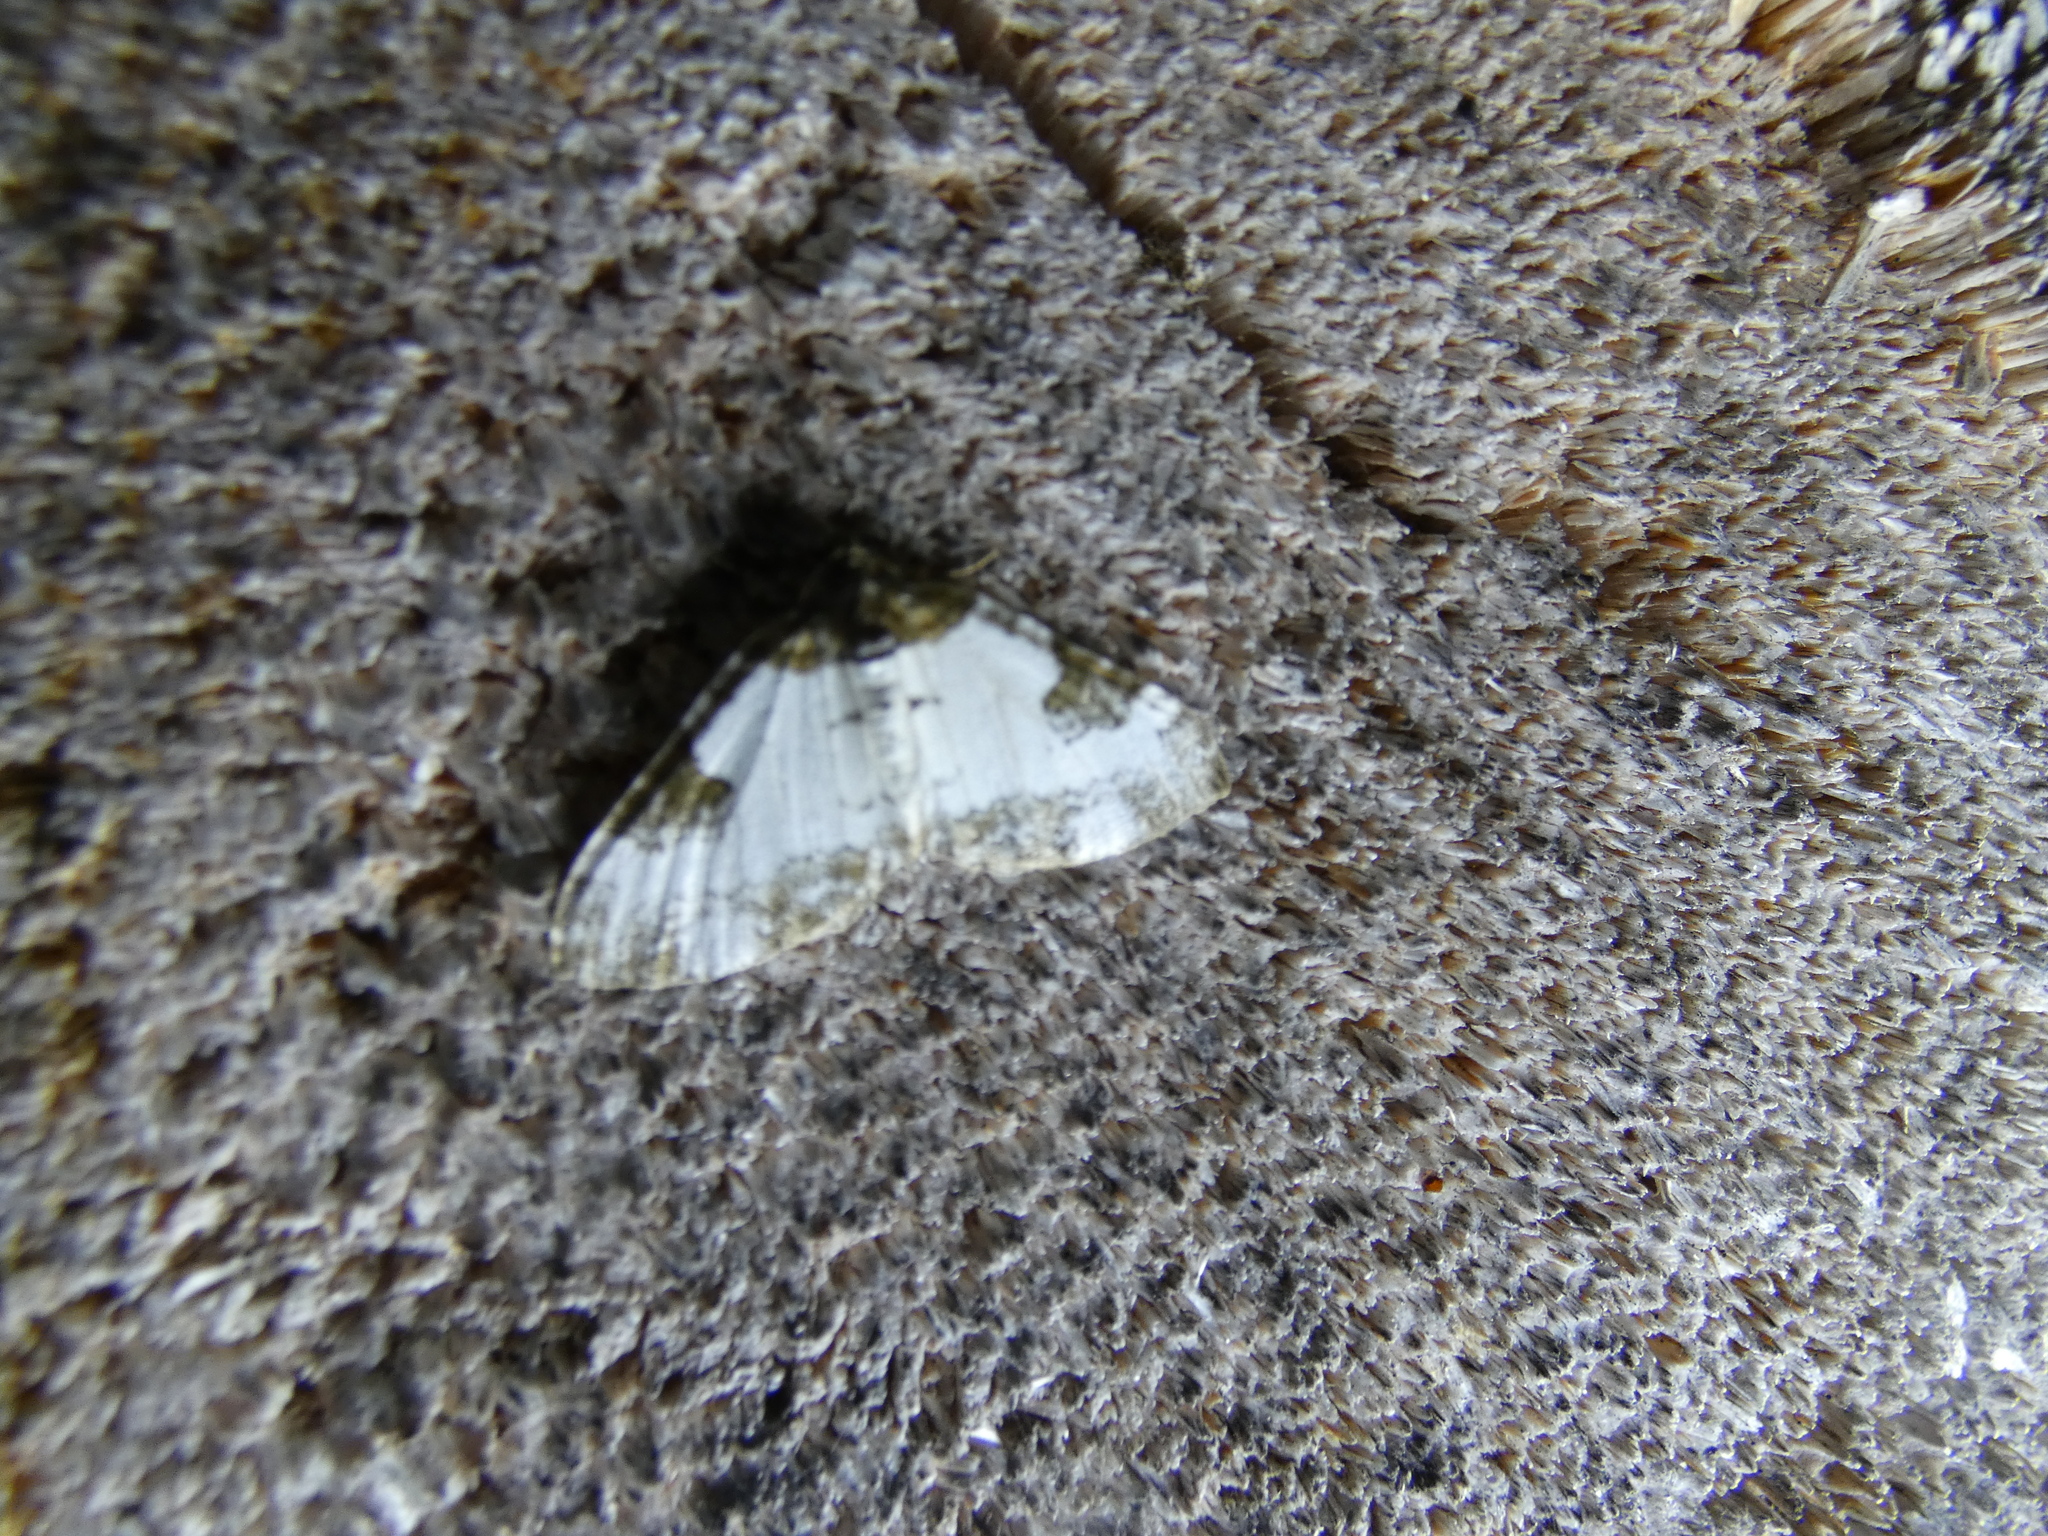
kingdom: Animalia
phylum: Arthropoda
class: Insecta
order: Lepidoptera
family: Geometridae
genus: Melanthia
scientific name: Melanthia procellata
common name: Pretty chalk carpet
